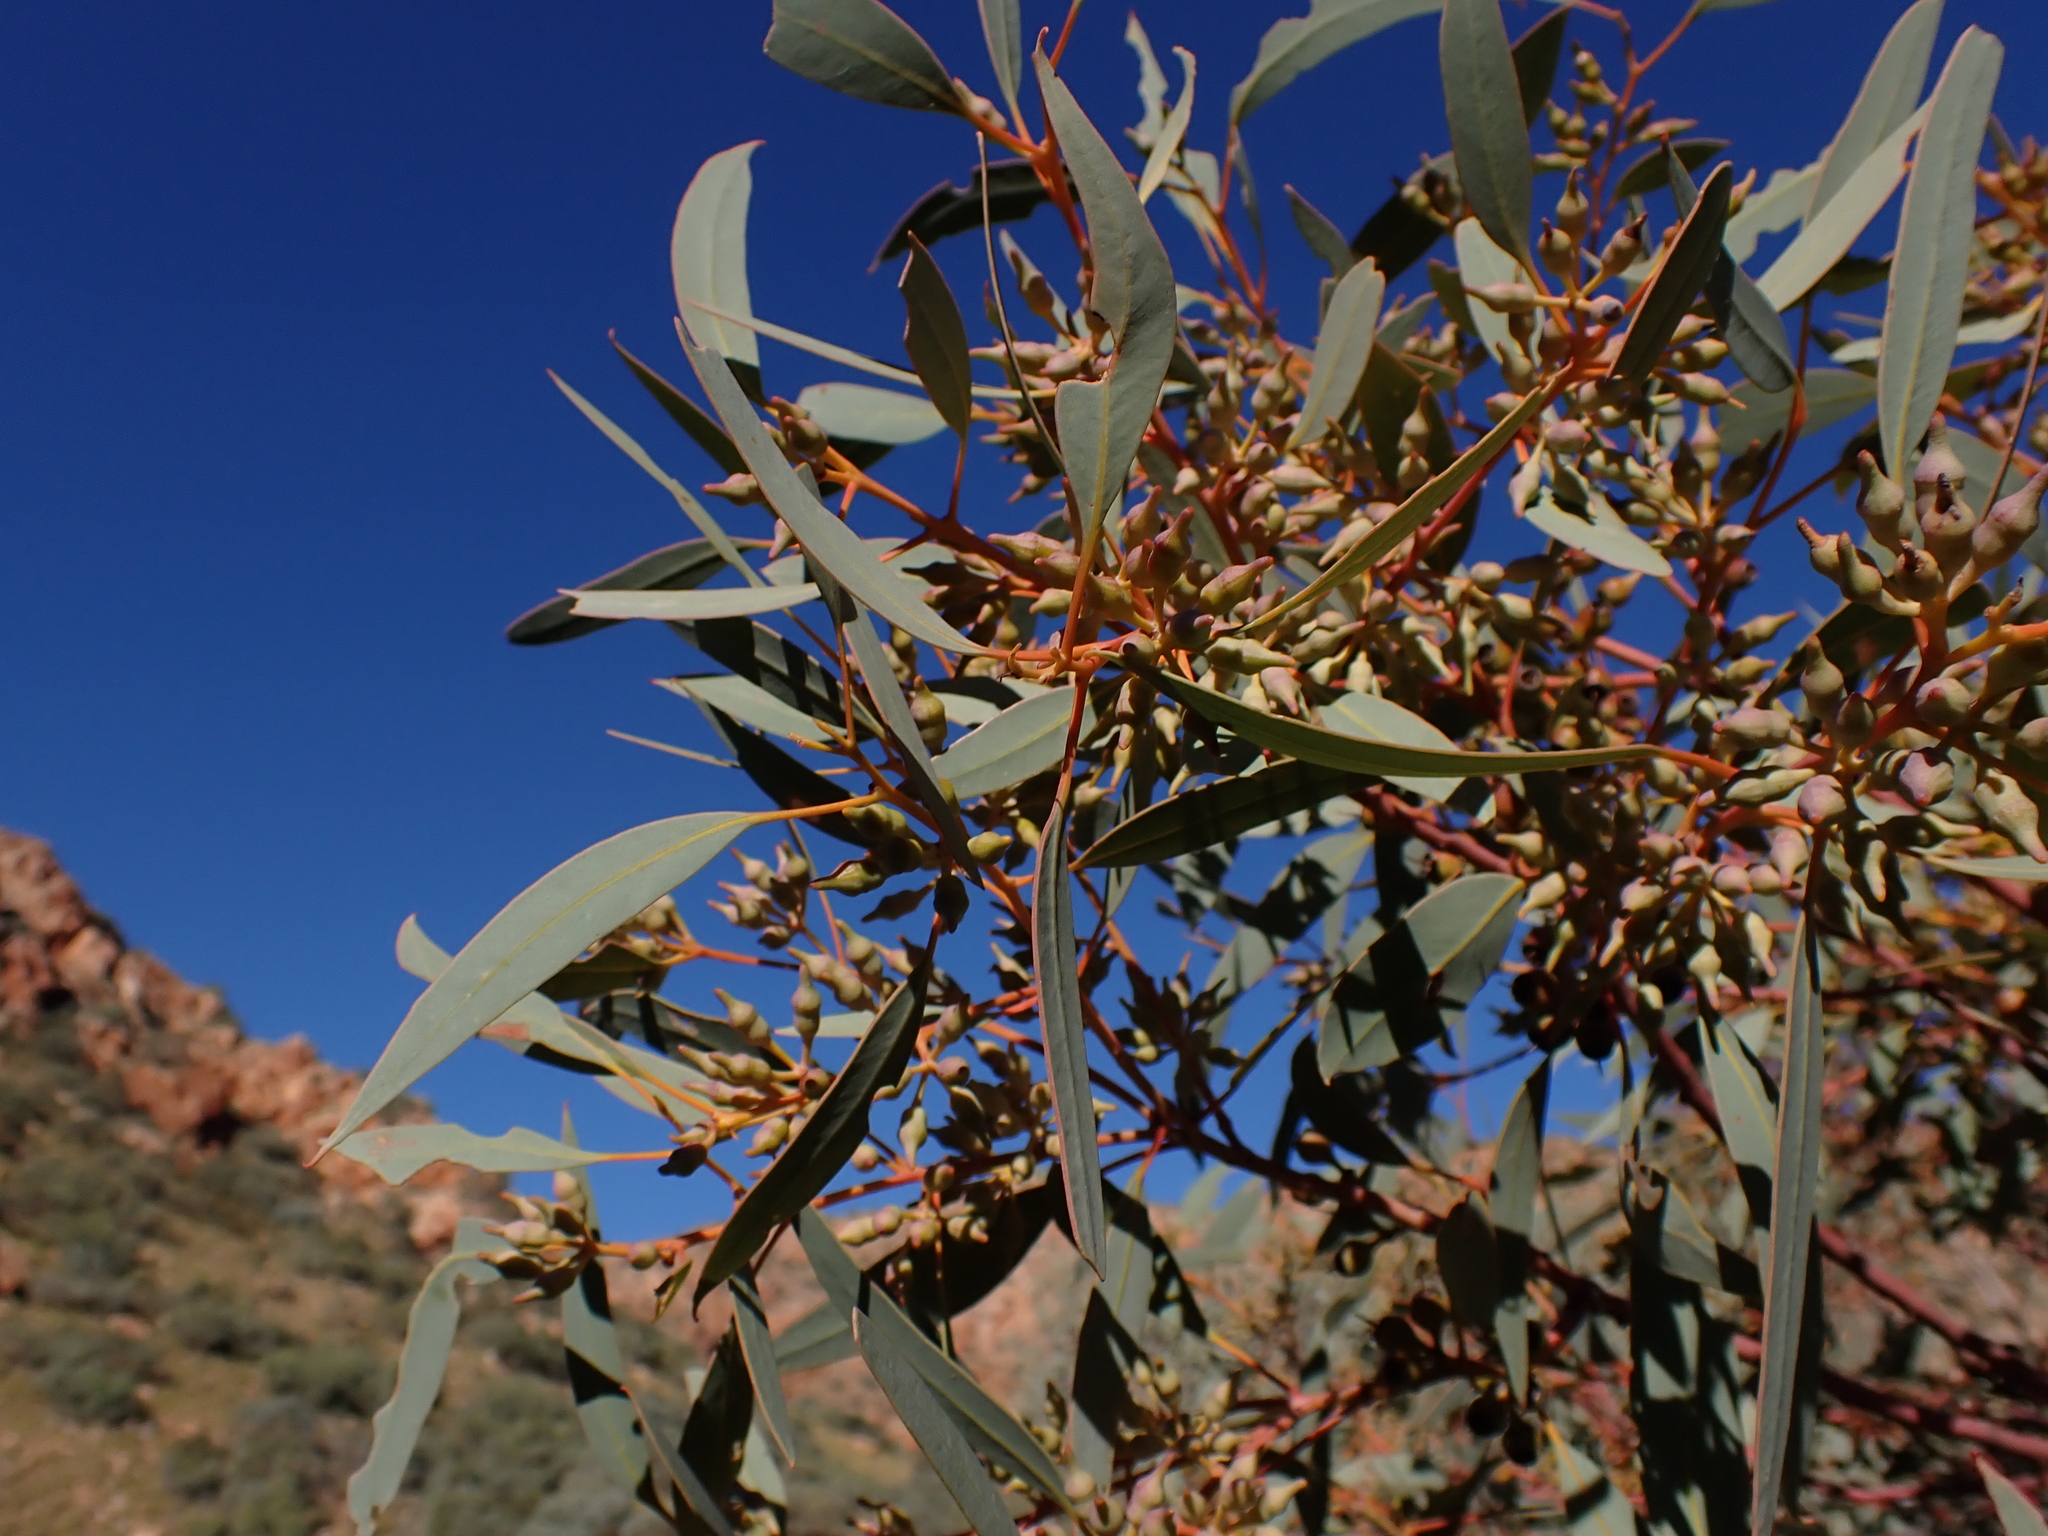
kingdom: Plantae
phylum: Tracheophyta
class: Magnoliopsida
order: Myrtales
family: Myrtaceae
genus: Eucalyptus
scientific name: Eucalyptus socialis
